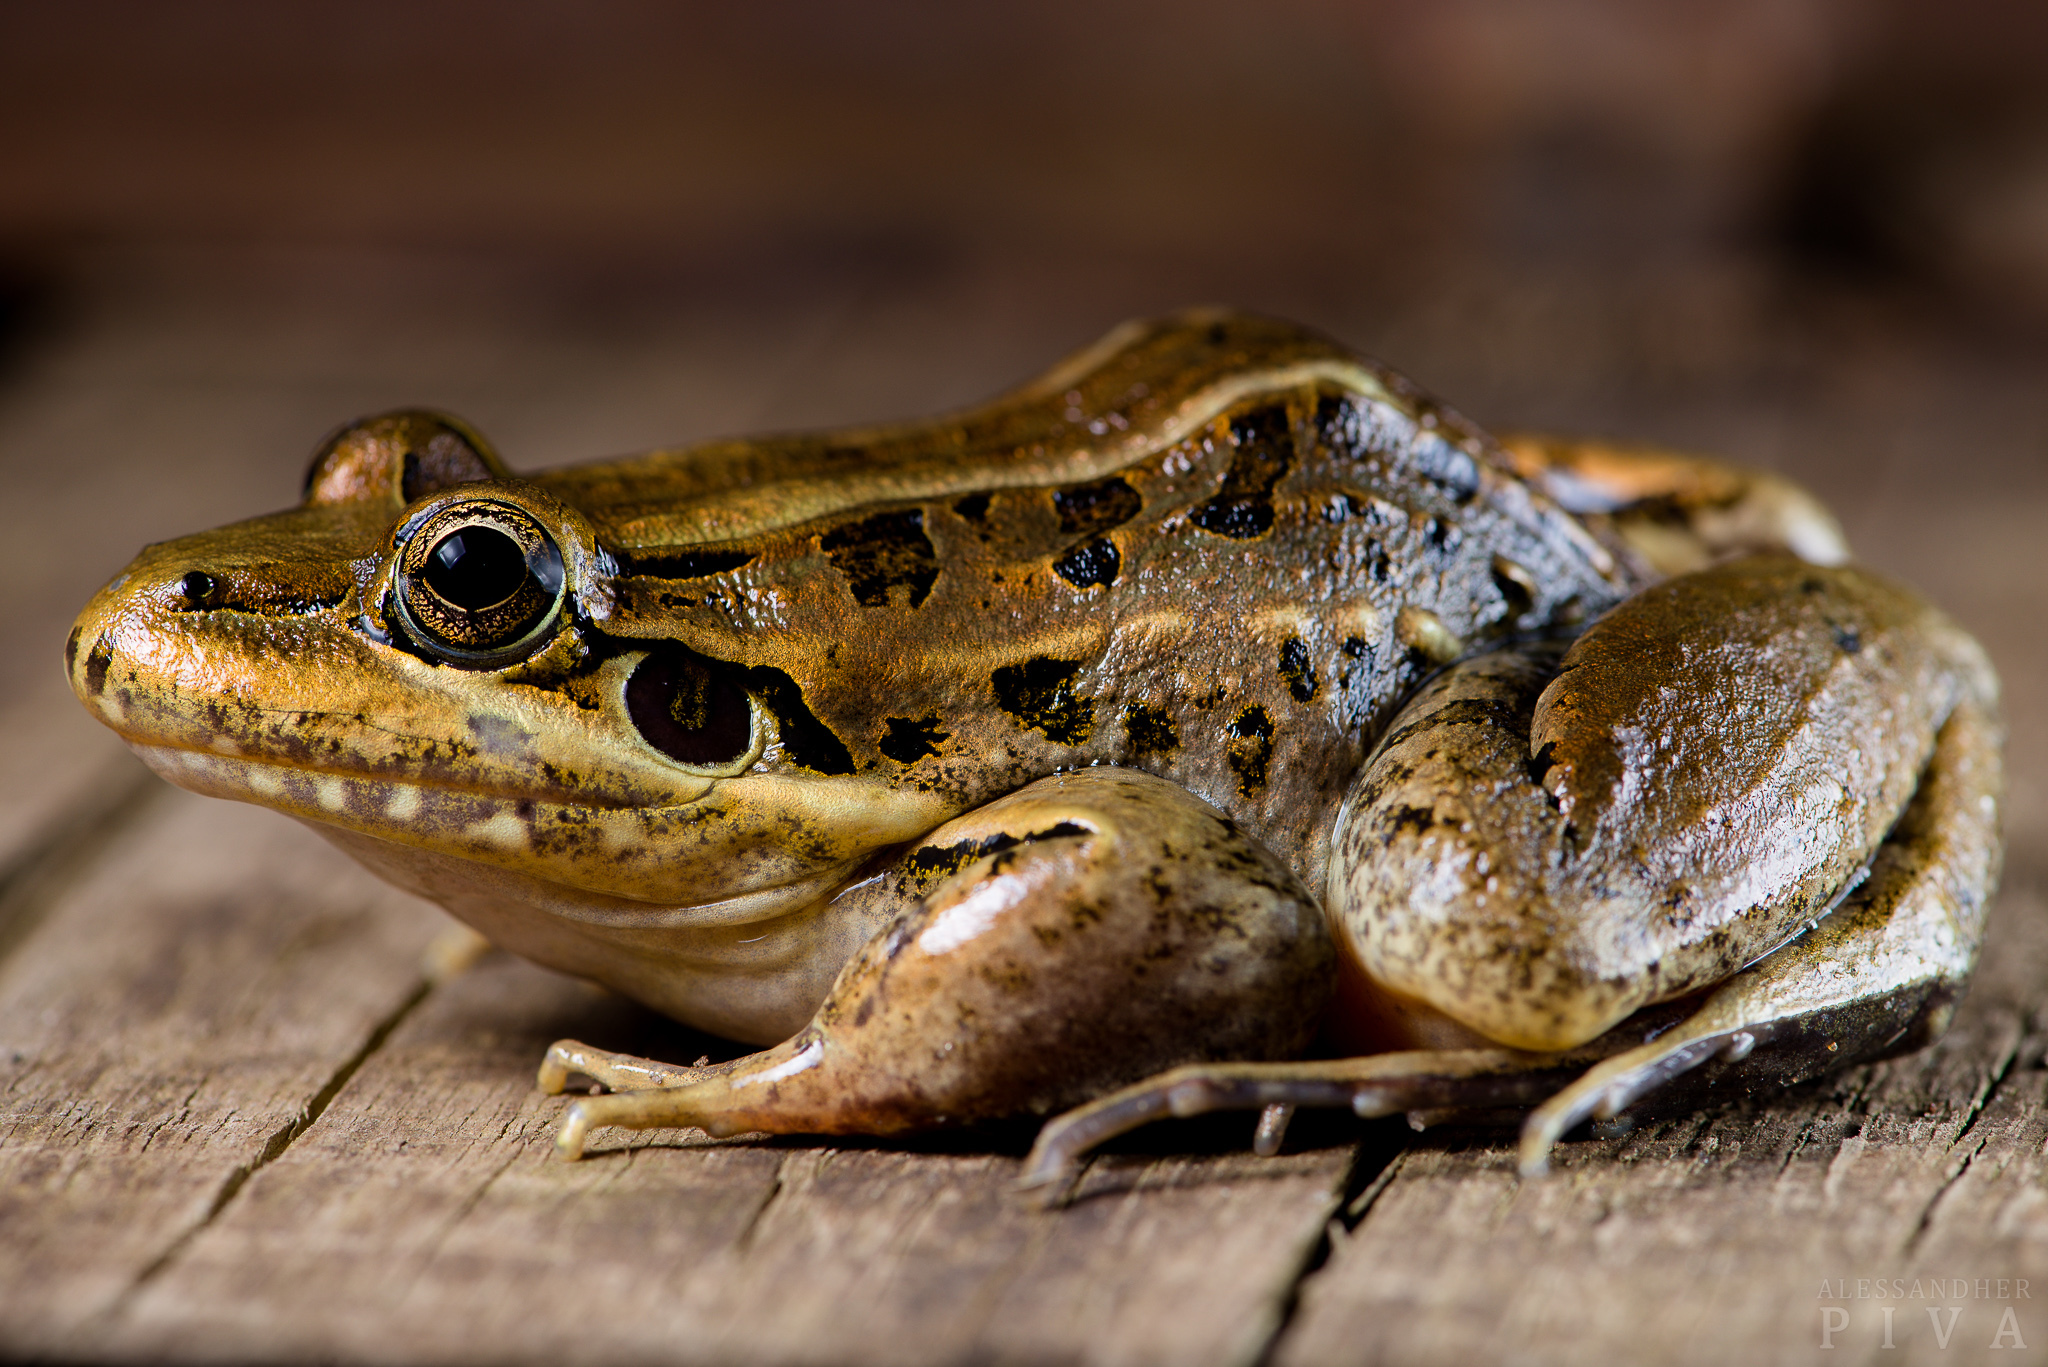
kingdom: Animalia
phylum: Chordata
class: Amphibia
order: Anura
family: Leptodactylidae
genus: Leptodactylus
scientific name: Leptodactylus paranaru
